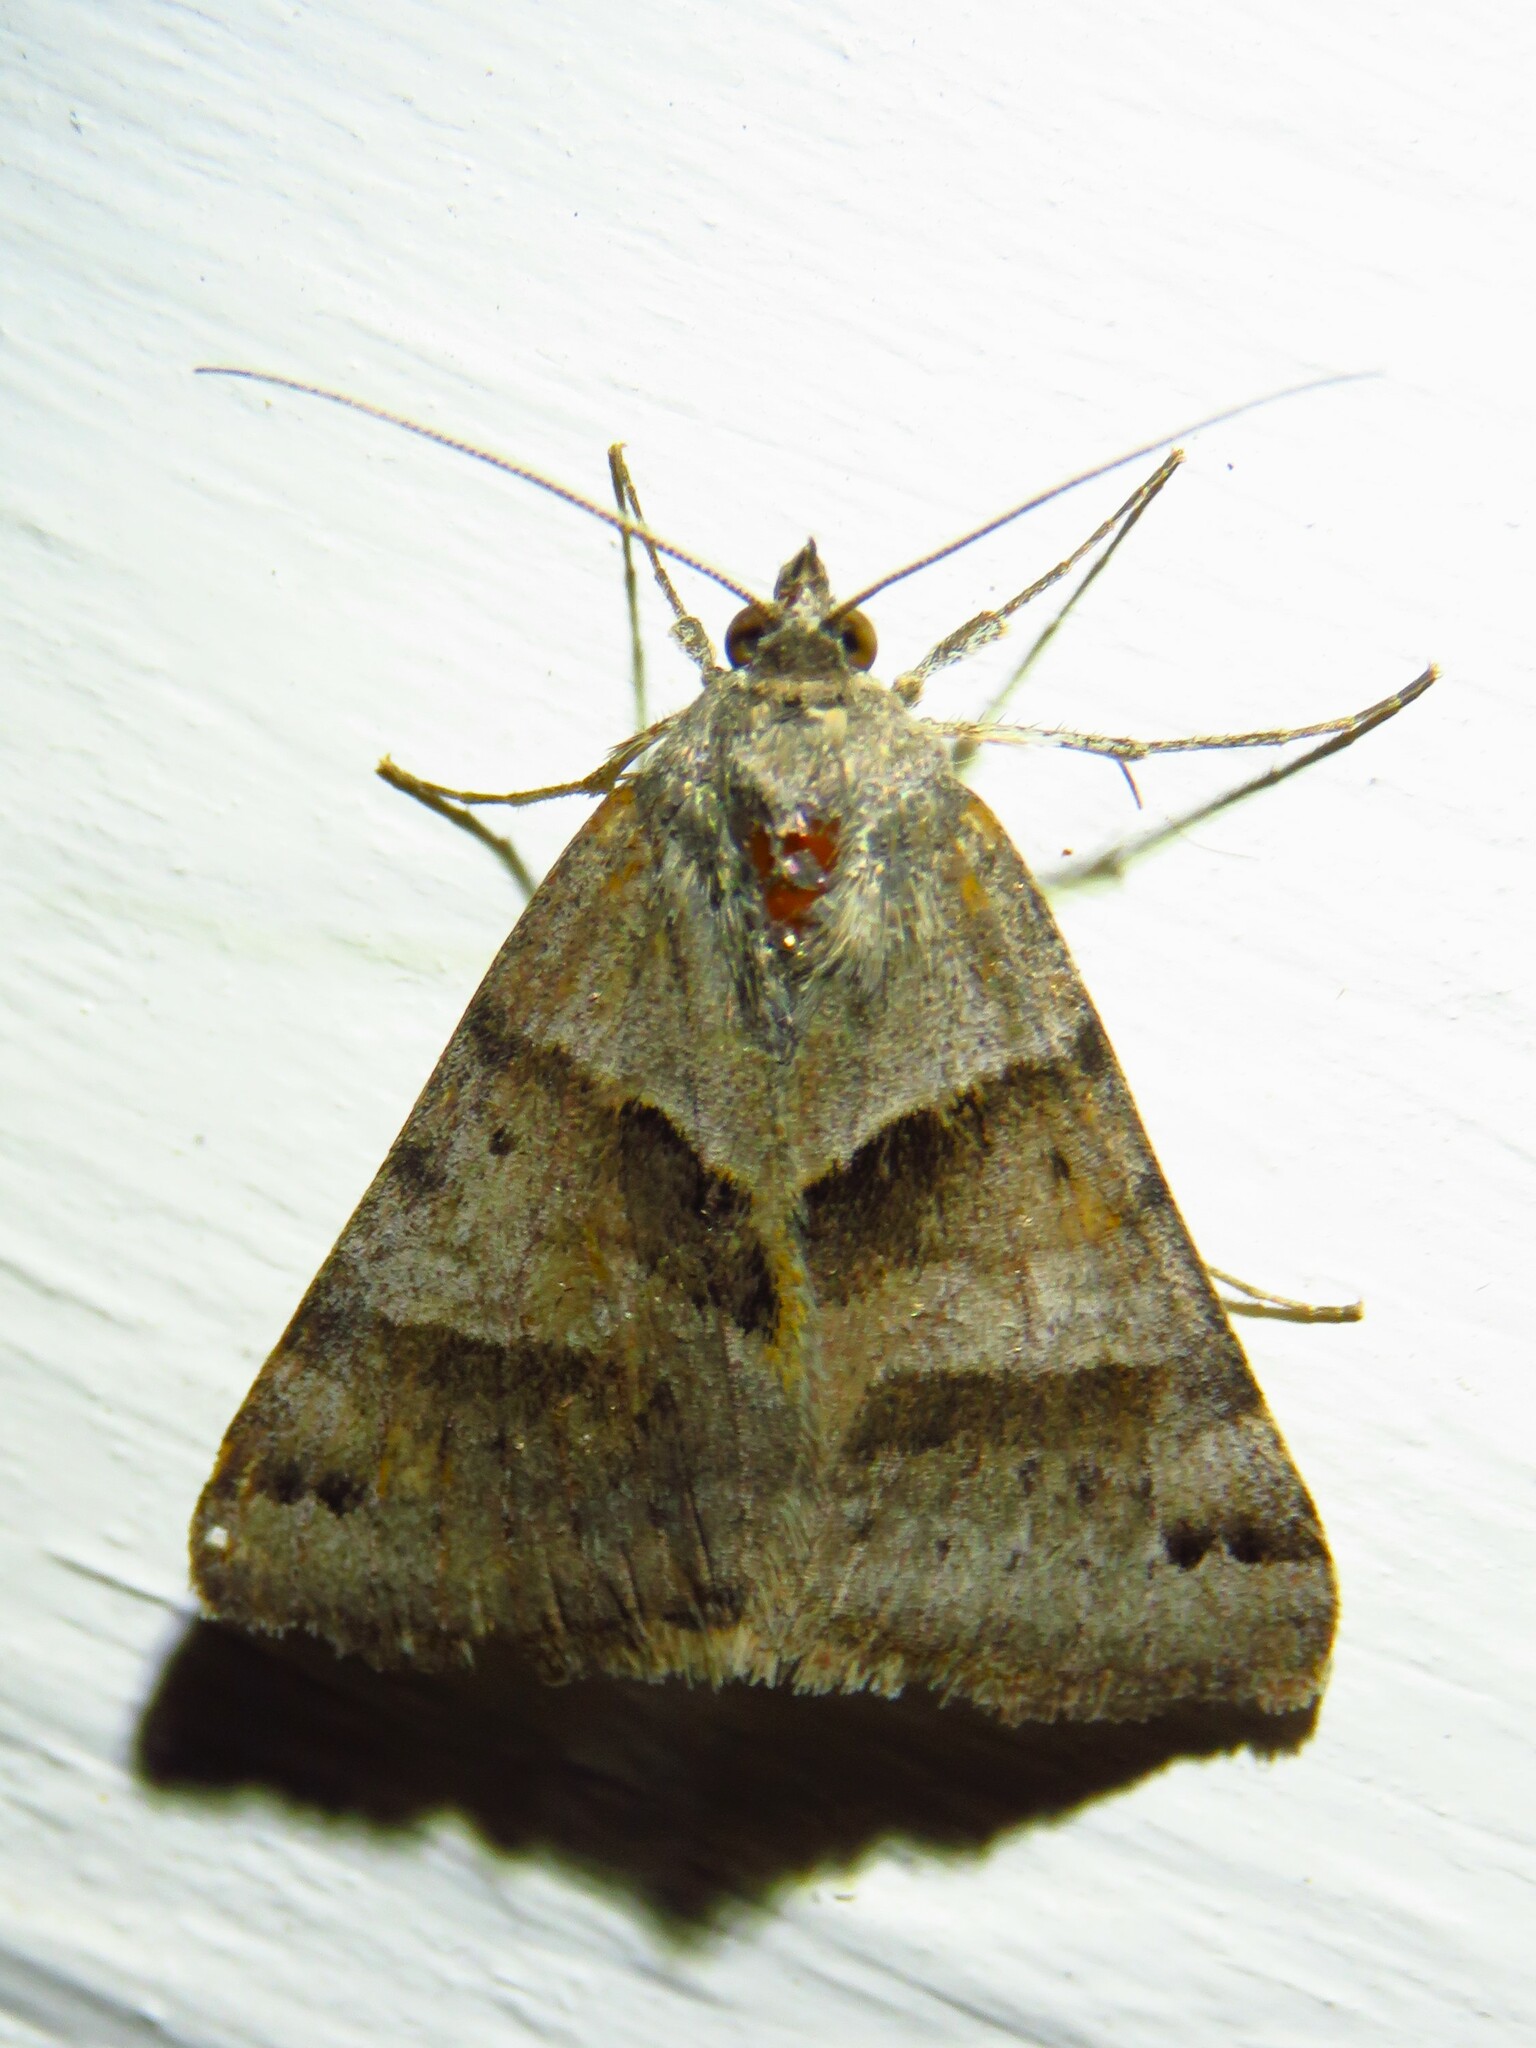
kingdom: Animalia
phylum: Arthropoda
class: Insecta
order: Lepidoptera
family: Erebidae
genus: Caenurgina
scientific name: Caenurgina erechtea
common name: Forage looper moth
